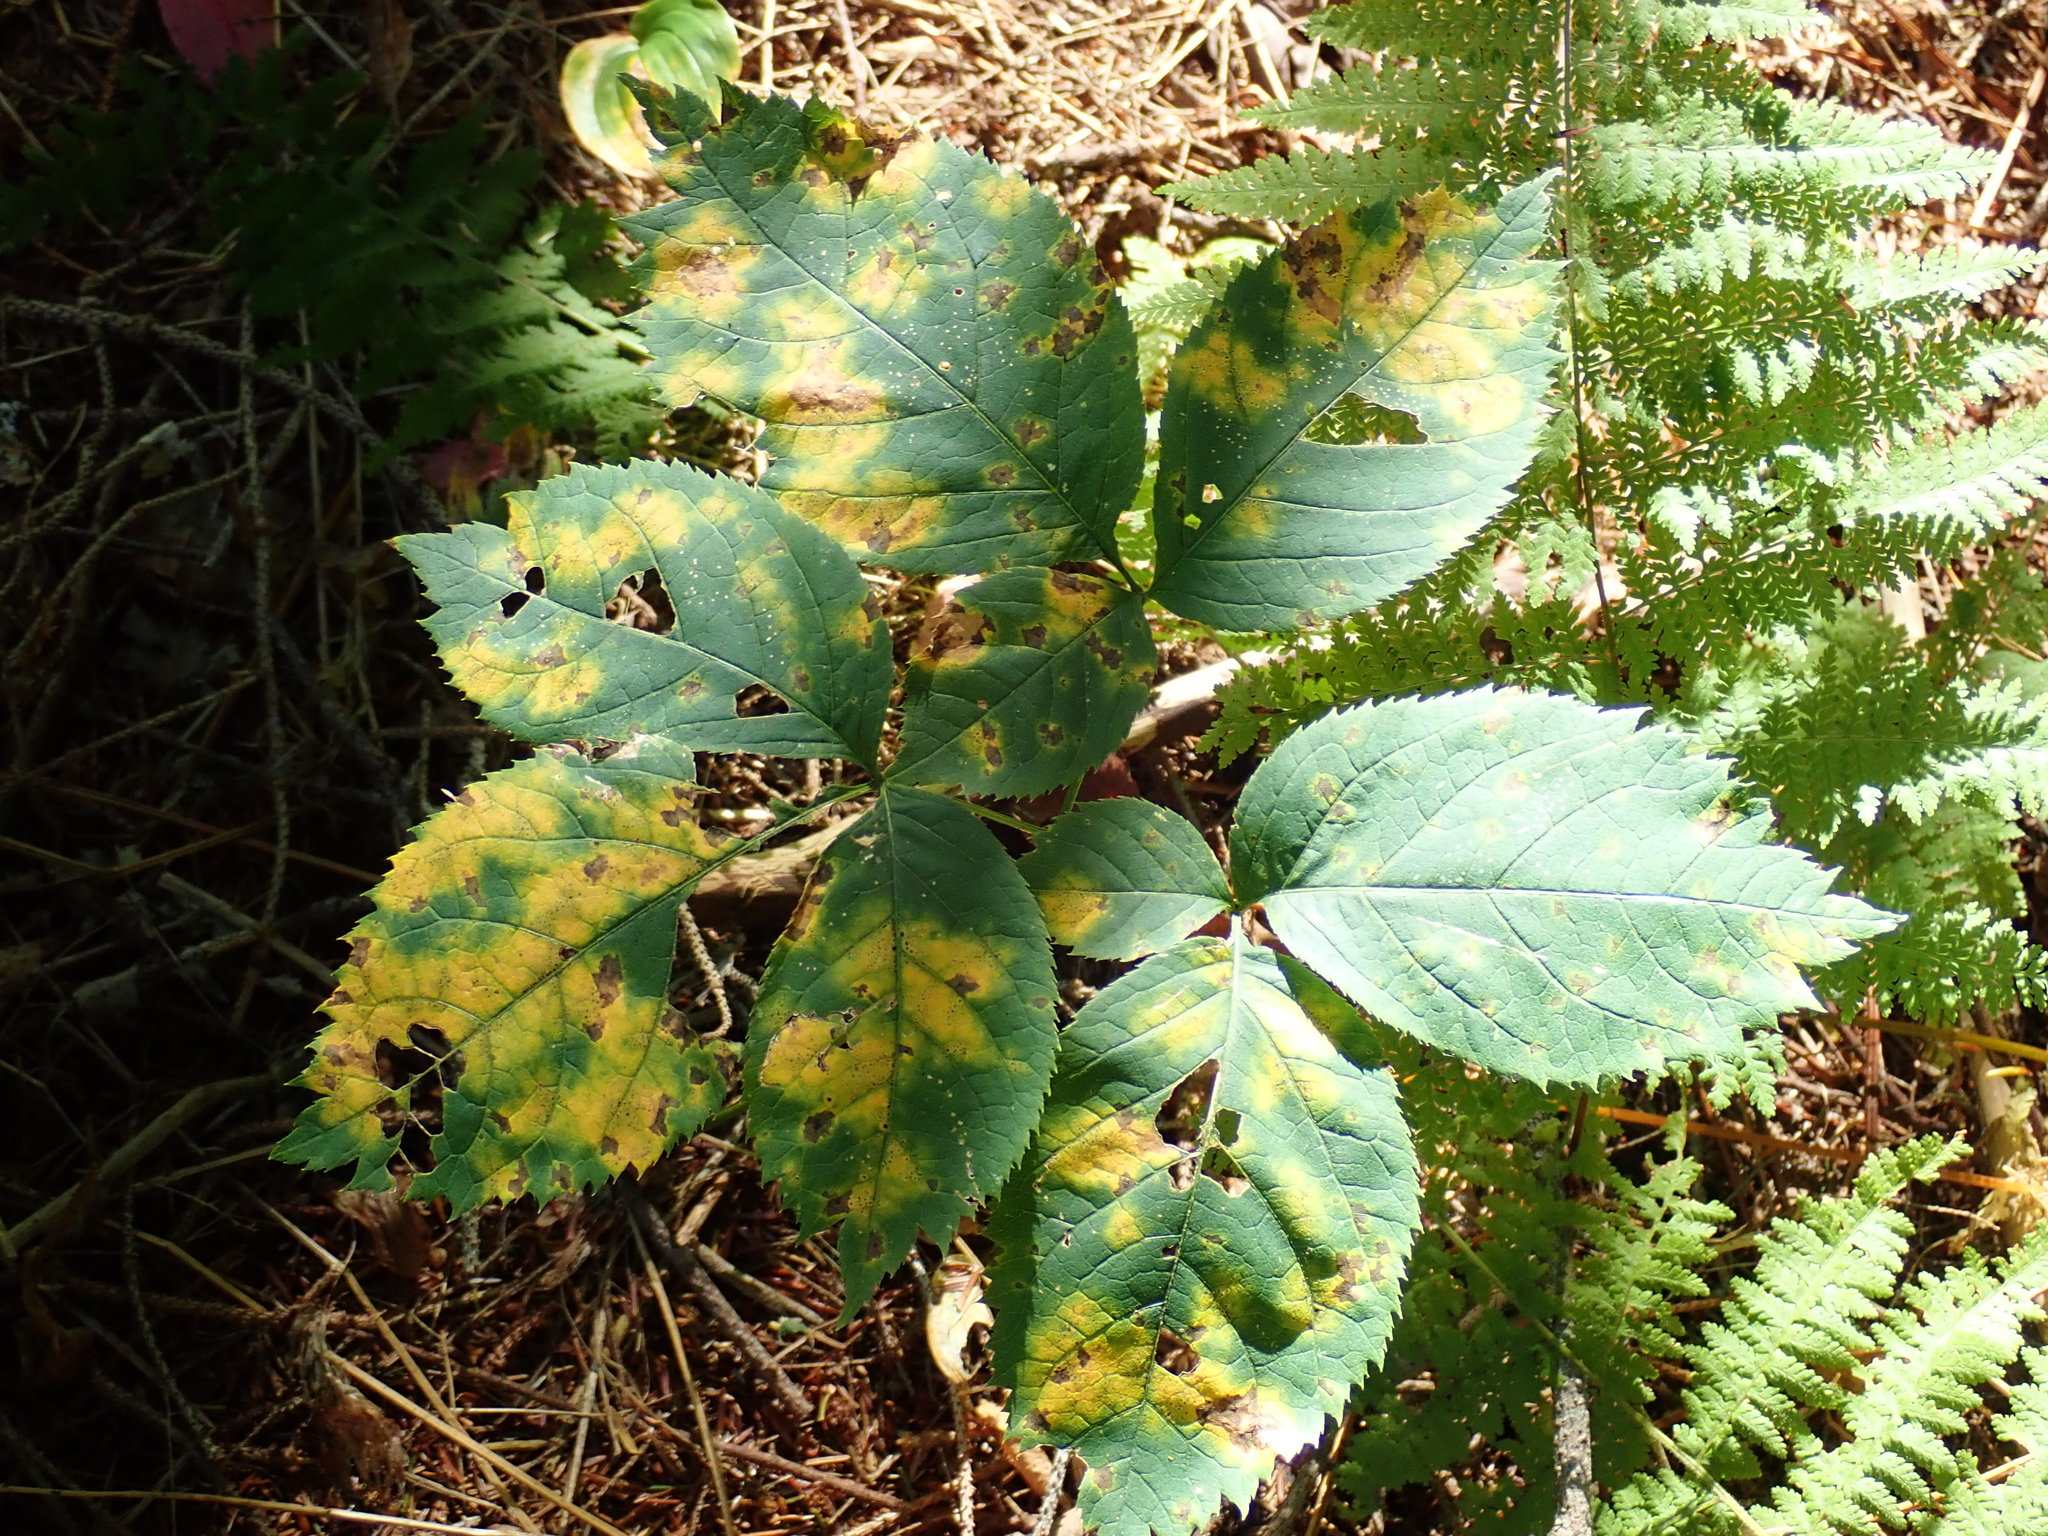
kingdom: Plantae
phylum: Tracheophyta
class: Magnoliopsida
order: Apiales
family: Araliaceae
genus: Aralia
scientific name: Aralia nudicaulis
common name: Wild sarsaparilla
